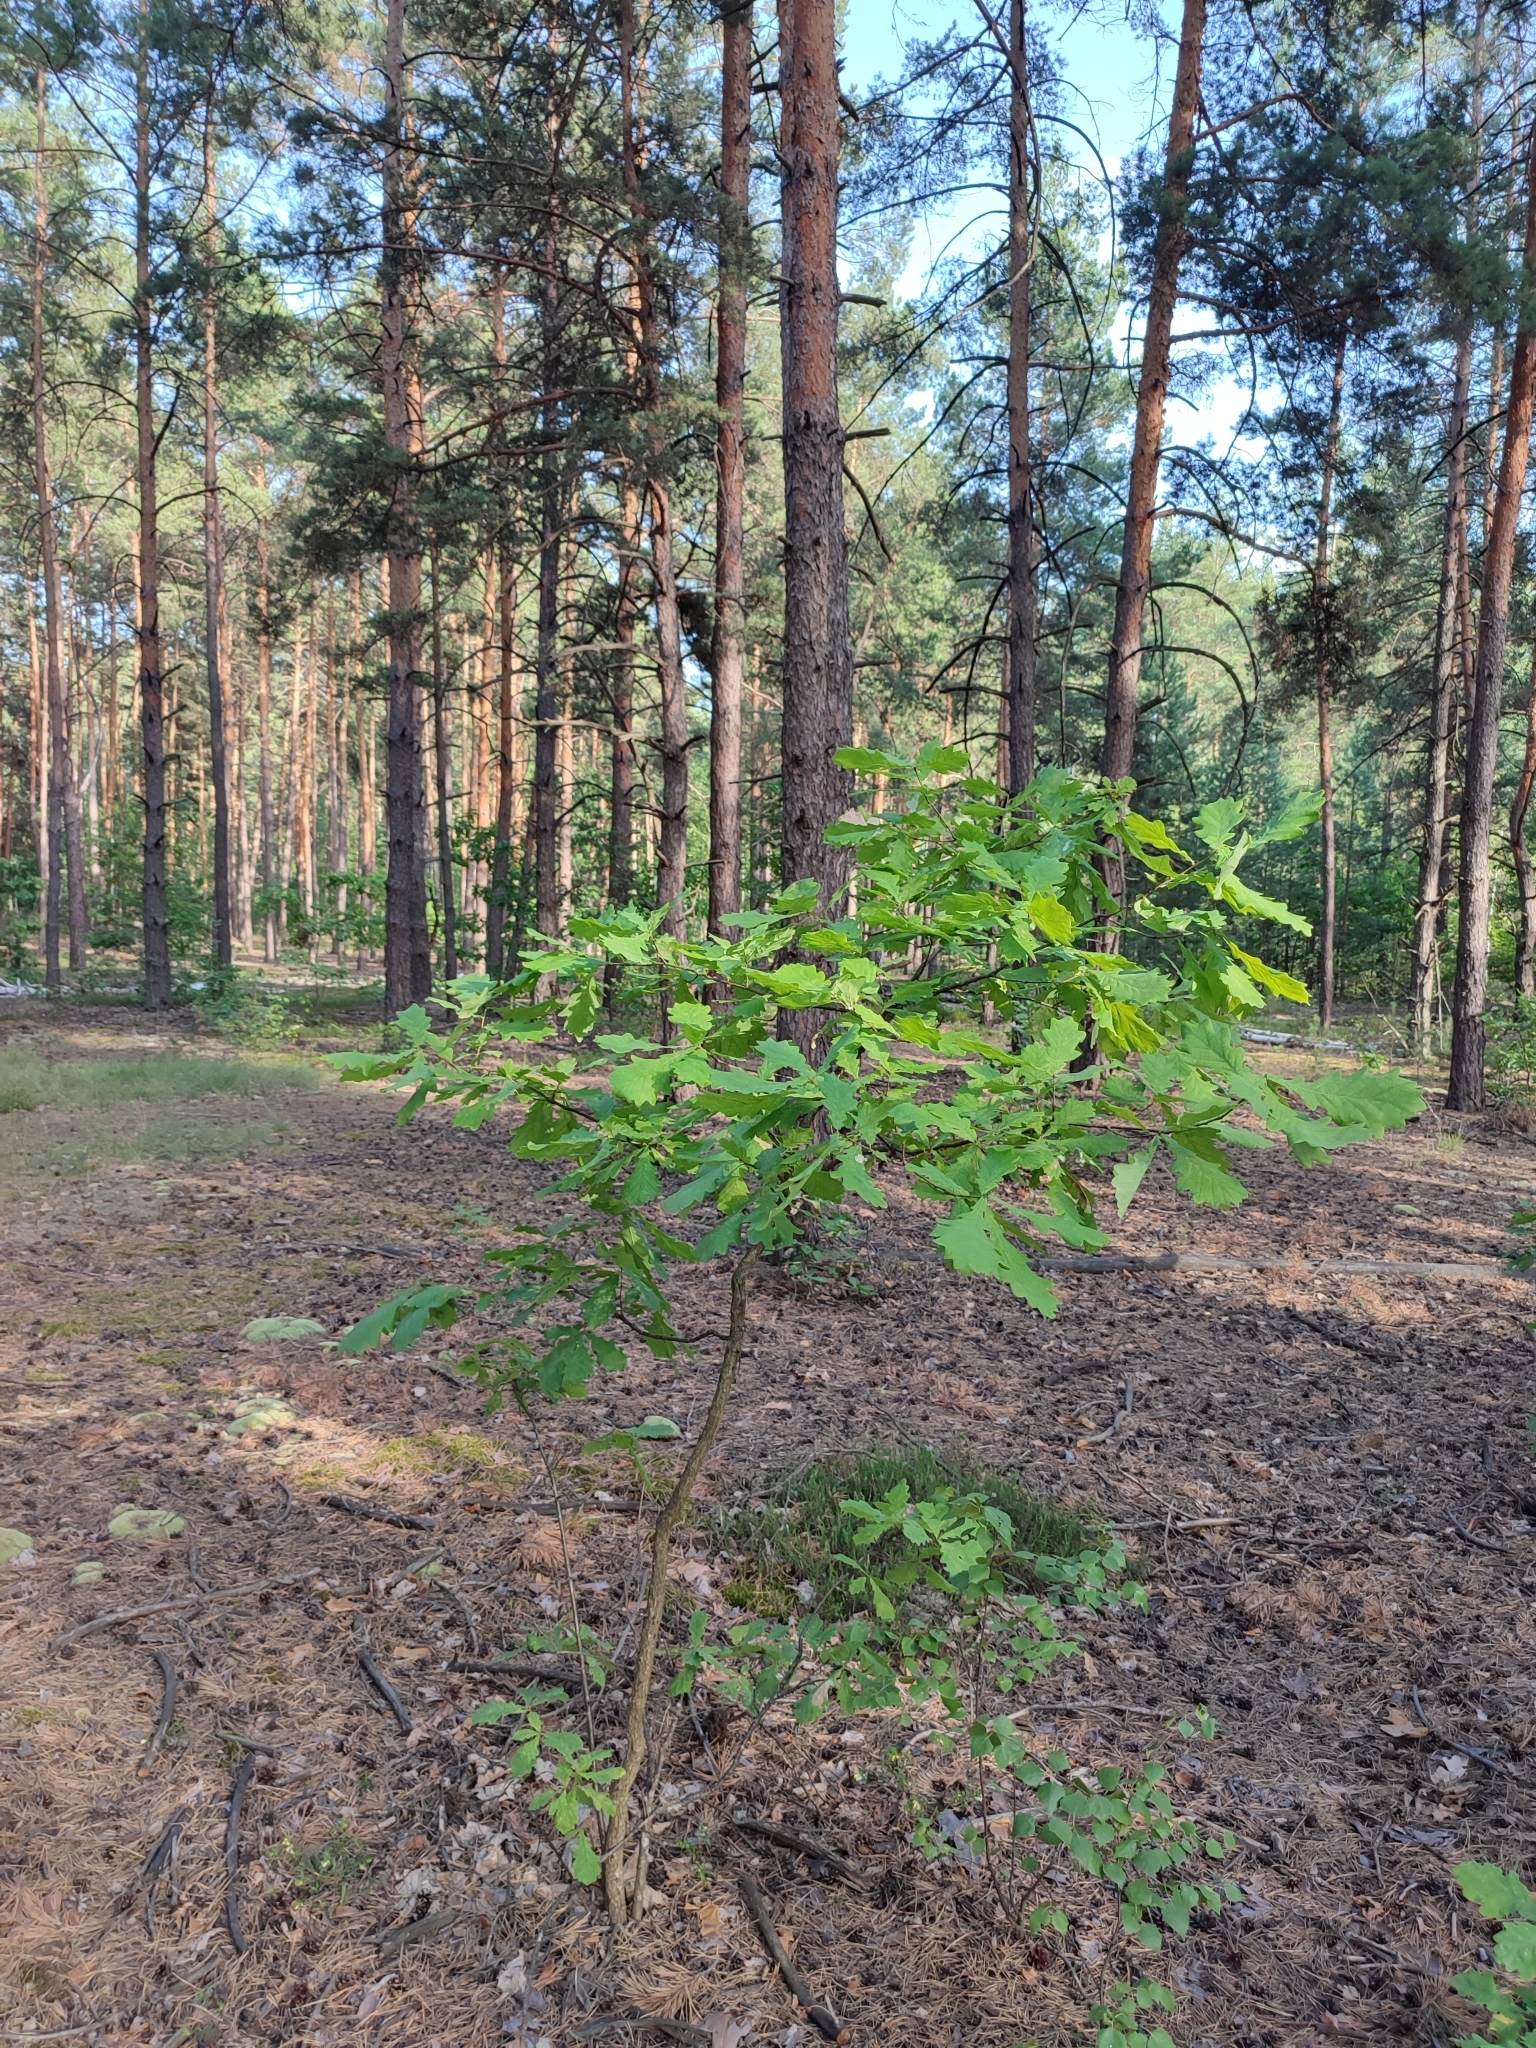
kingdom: Plantae
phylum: Tracheophyta
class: Magnoliopsida
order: Fagales
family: Fagaceae
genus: Quercus
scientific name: Quercus robur
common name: Pedunculate oak
